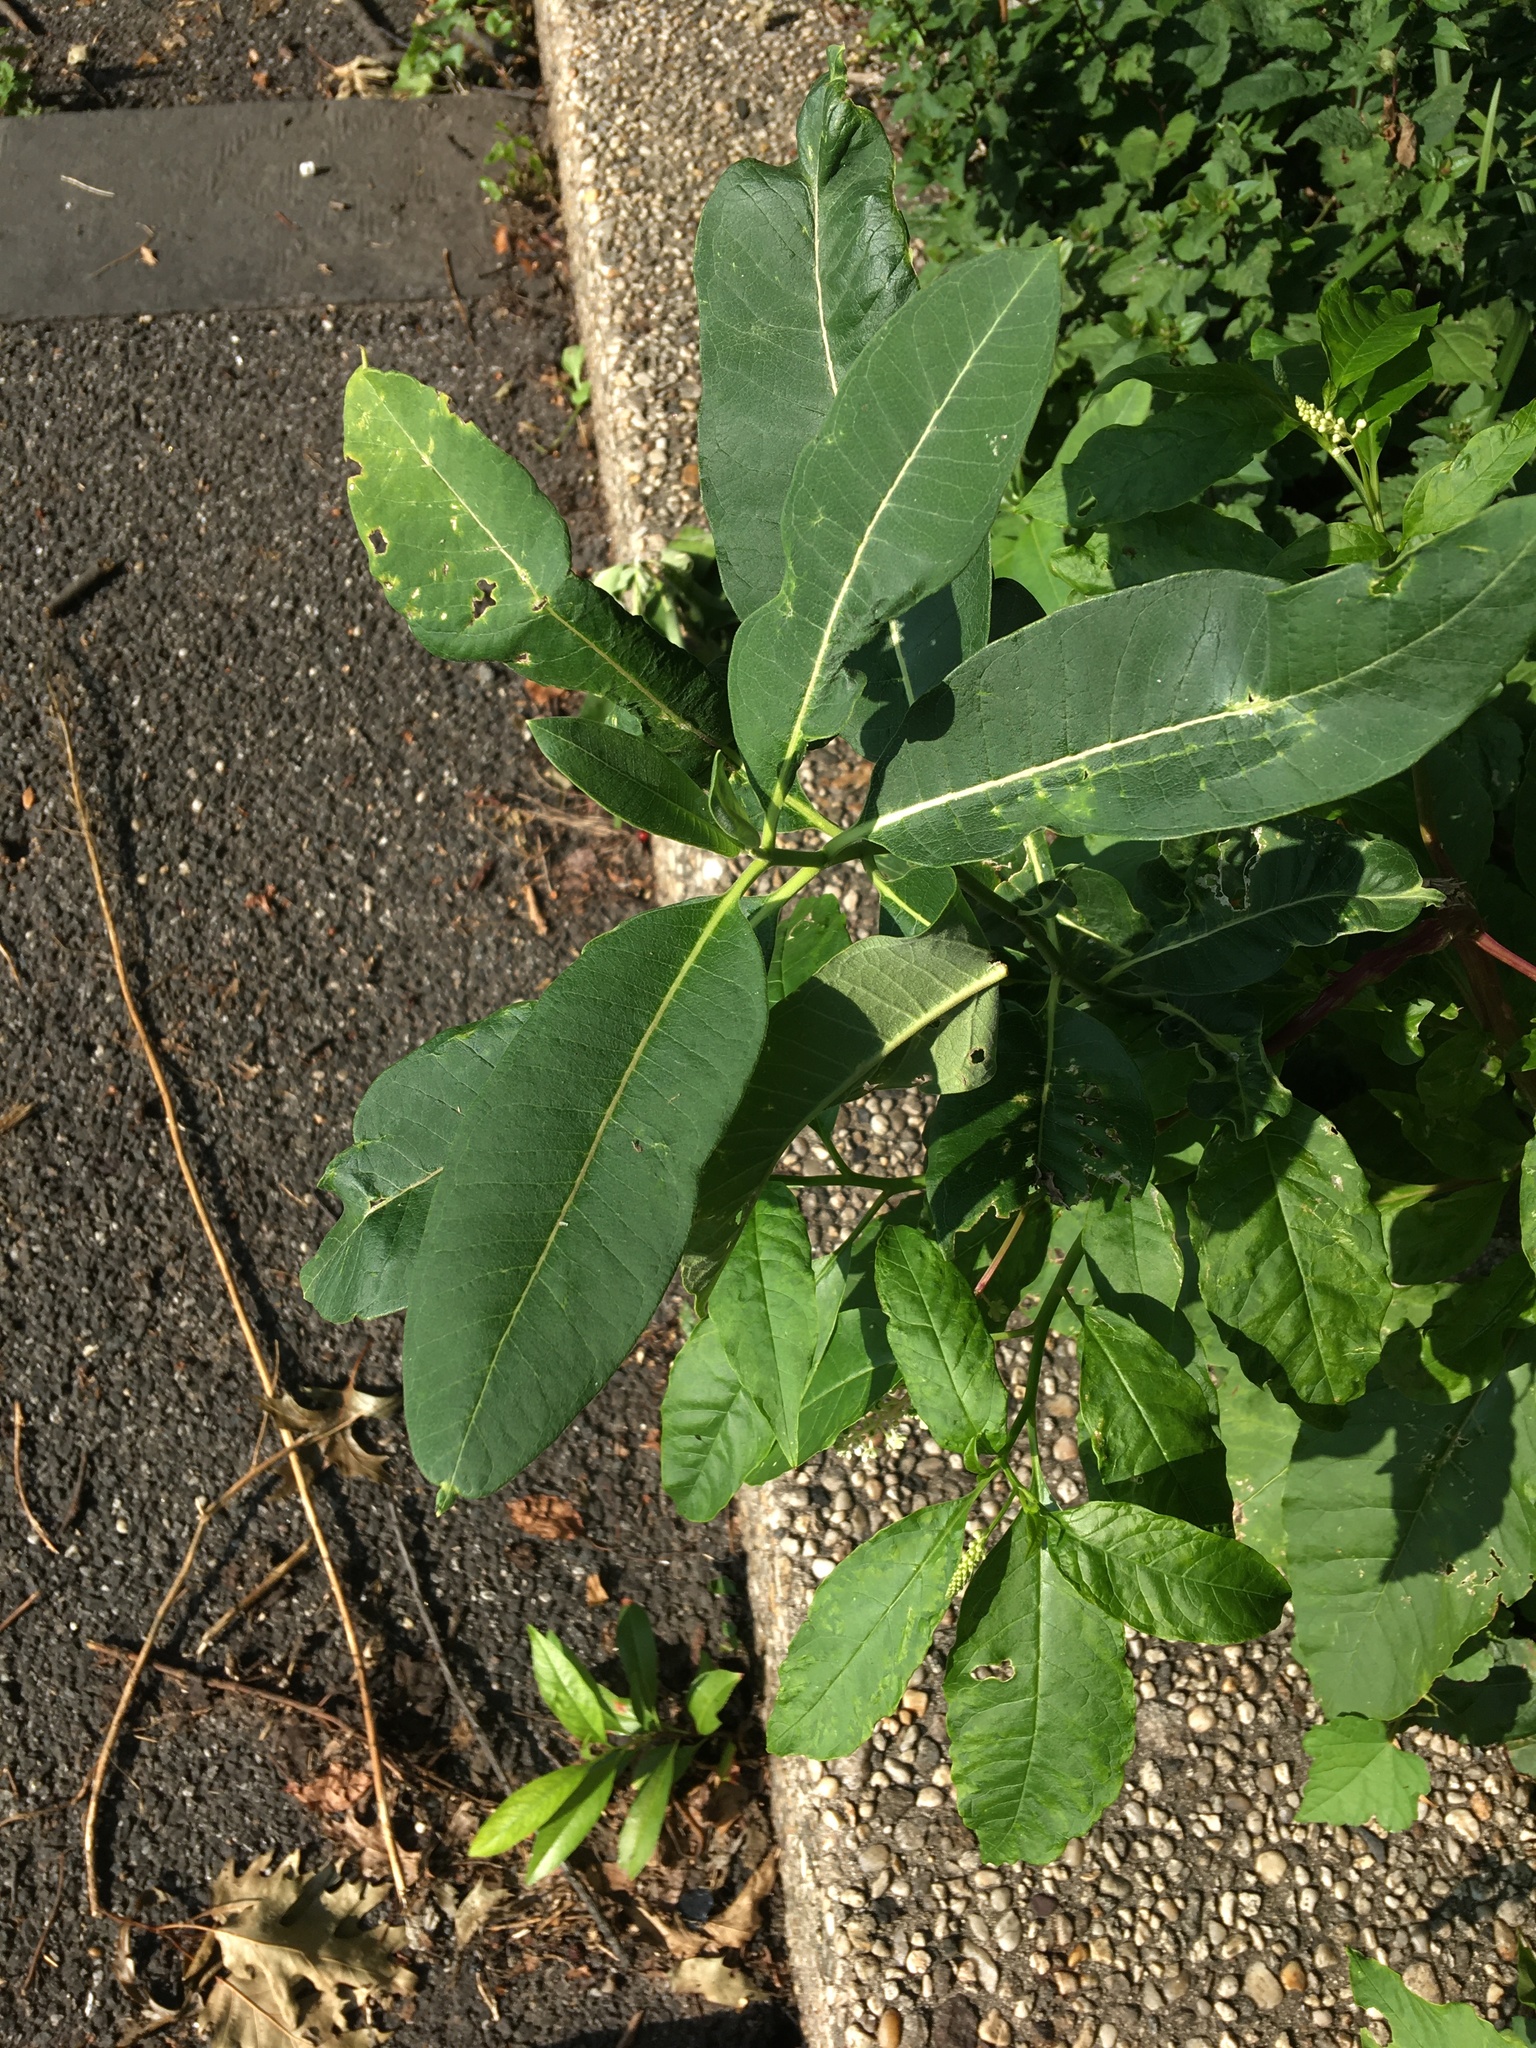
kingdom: Plantae
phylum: Tracheophyta
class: Magnoliopsida
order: Gentianales
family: Apocynaceae
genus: Asclepias
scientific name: Asclepias syriaca
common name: Common milkweed
